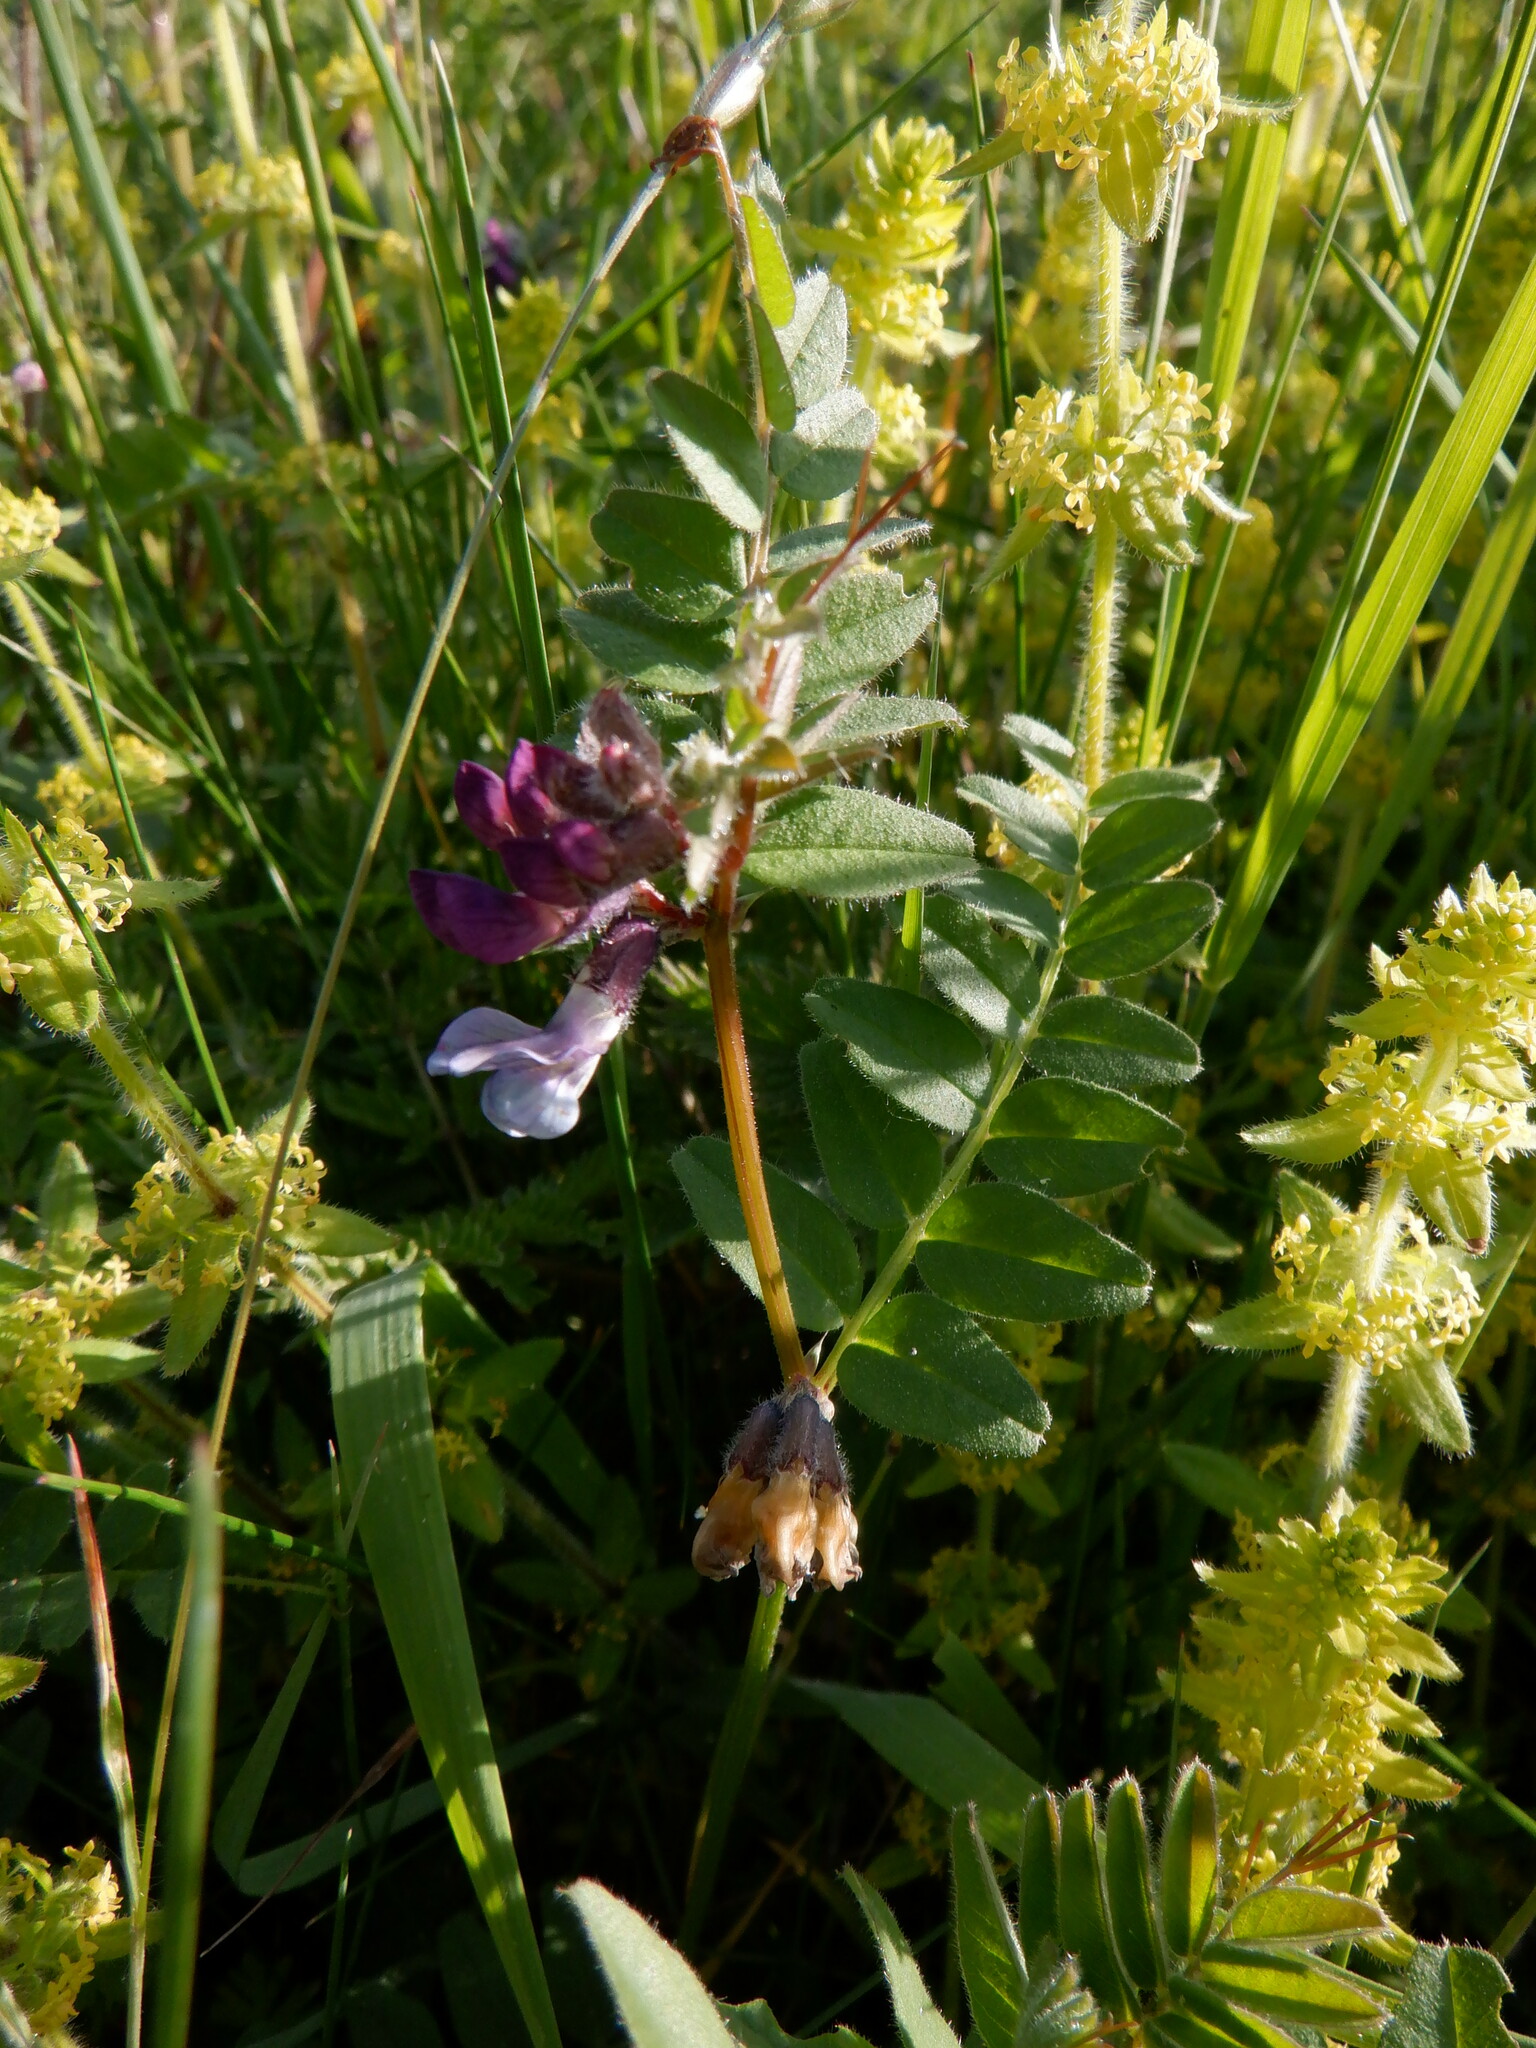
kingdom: Plantae
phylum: Tracheophyta
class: Magnoliopsida
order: Fabales
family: Fabaceae
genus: Vicia
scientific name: Vicia sepium
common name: Bush vetch
